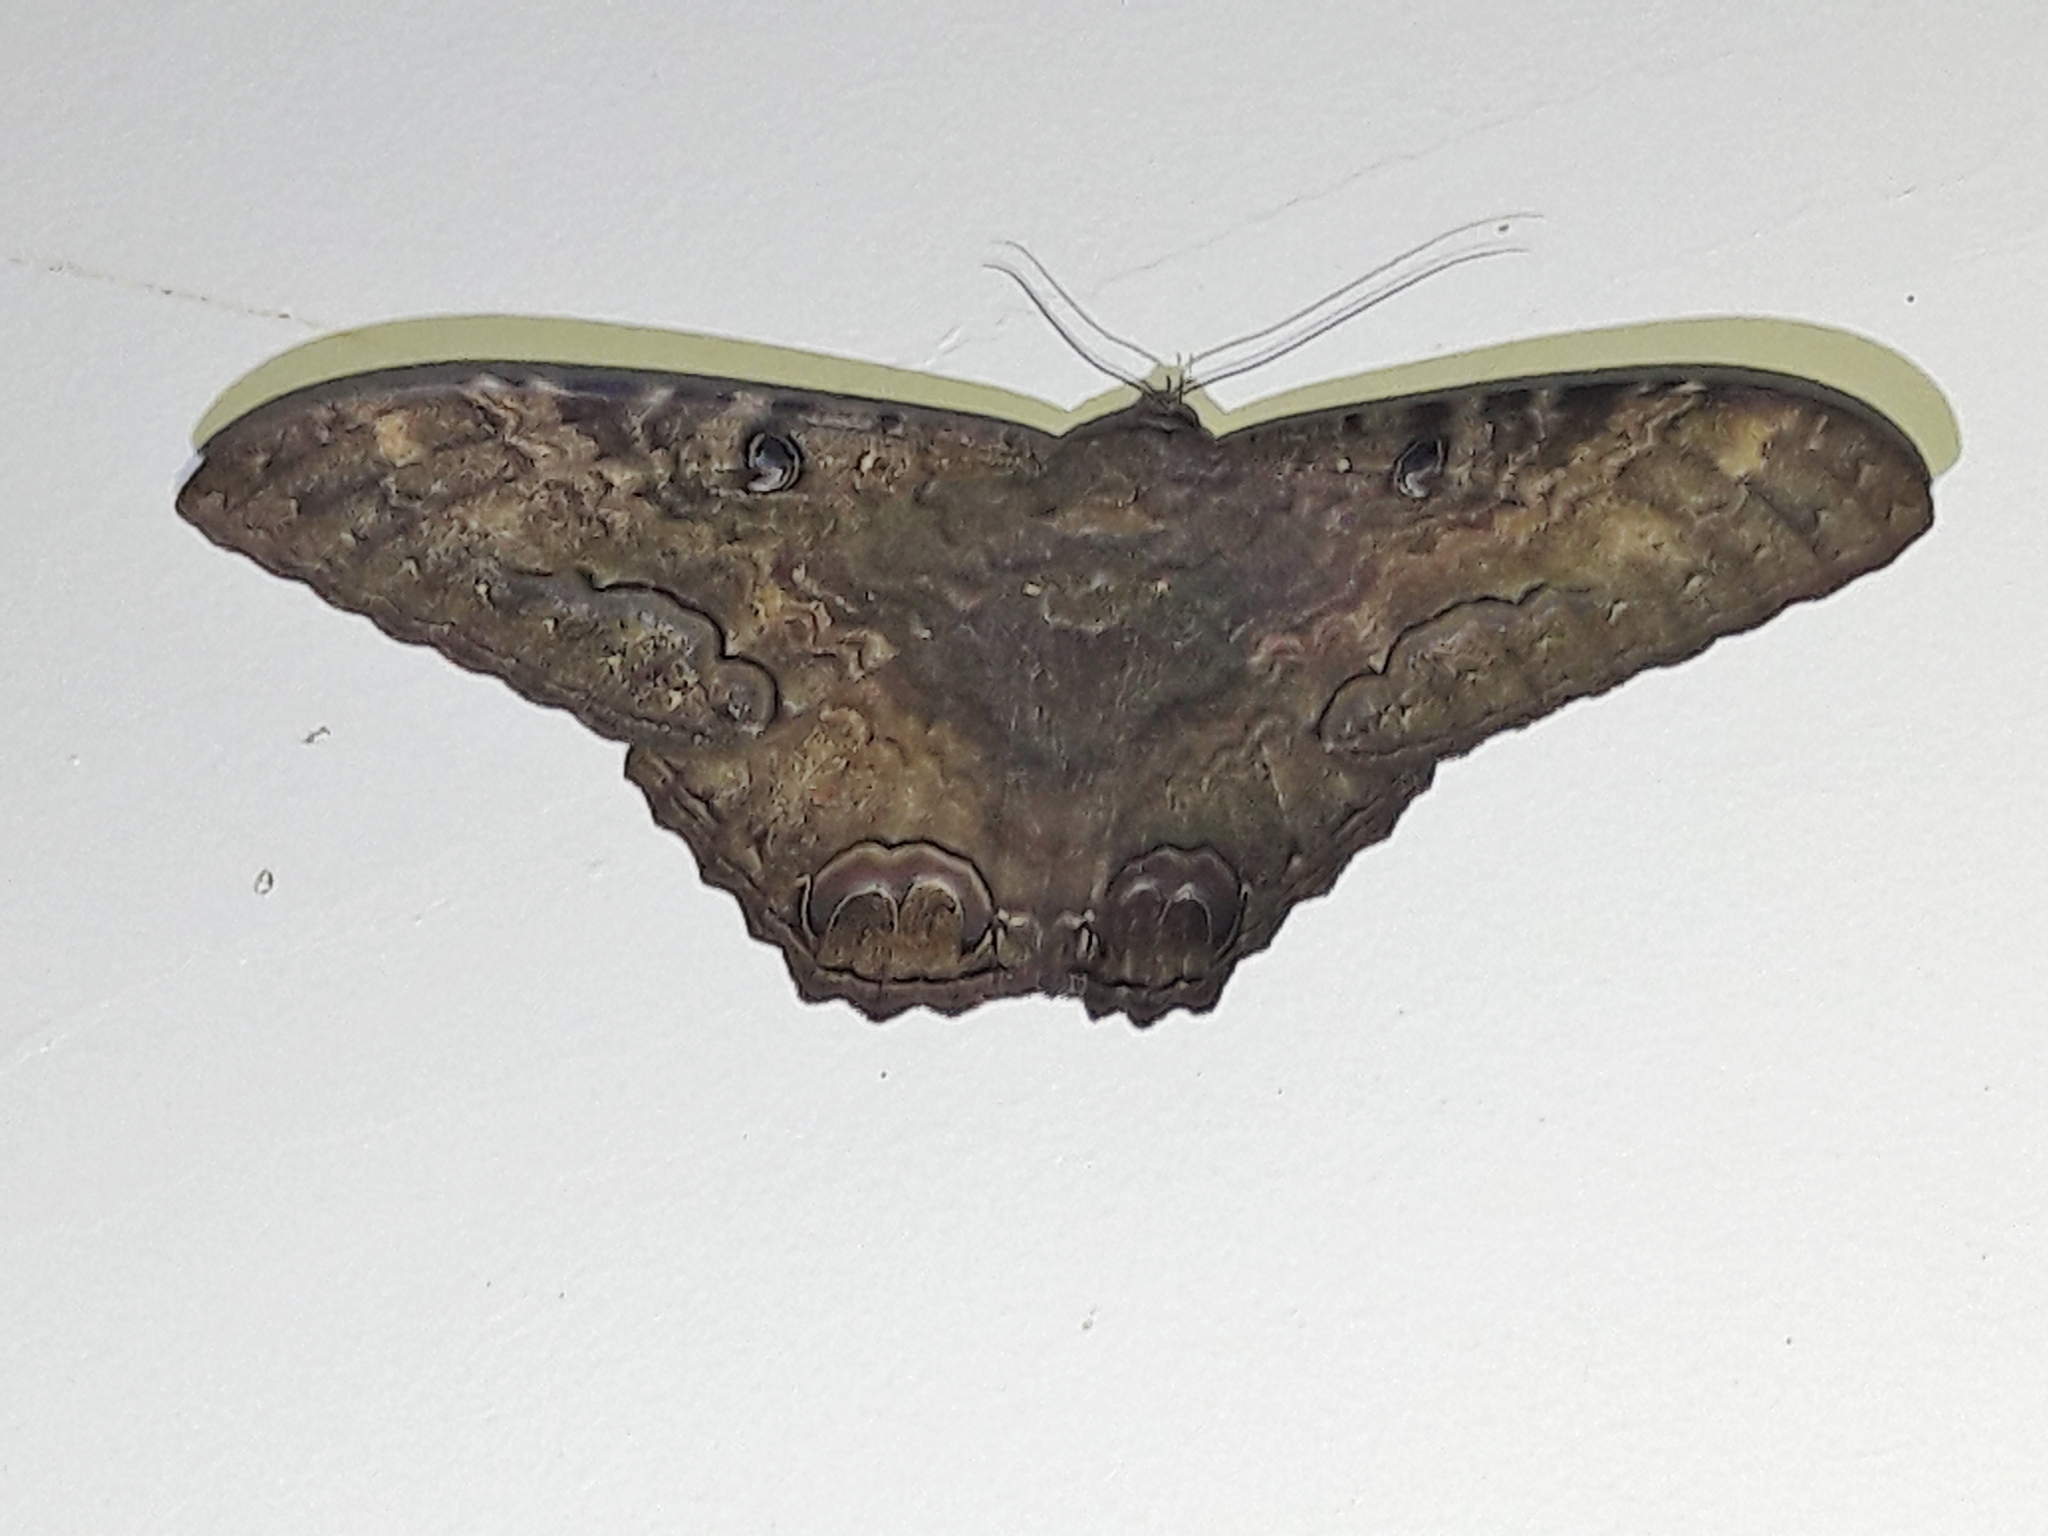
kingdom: Animalia
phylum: Arthropoda
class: Insecta
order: Lepidoptera
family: Erebidae
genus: Ascalapha
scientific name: Ascalapha odorata
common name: Black witch
